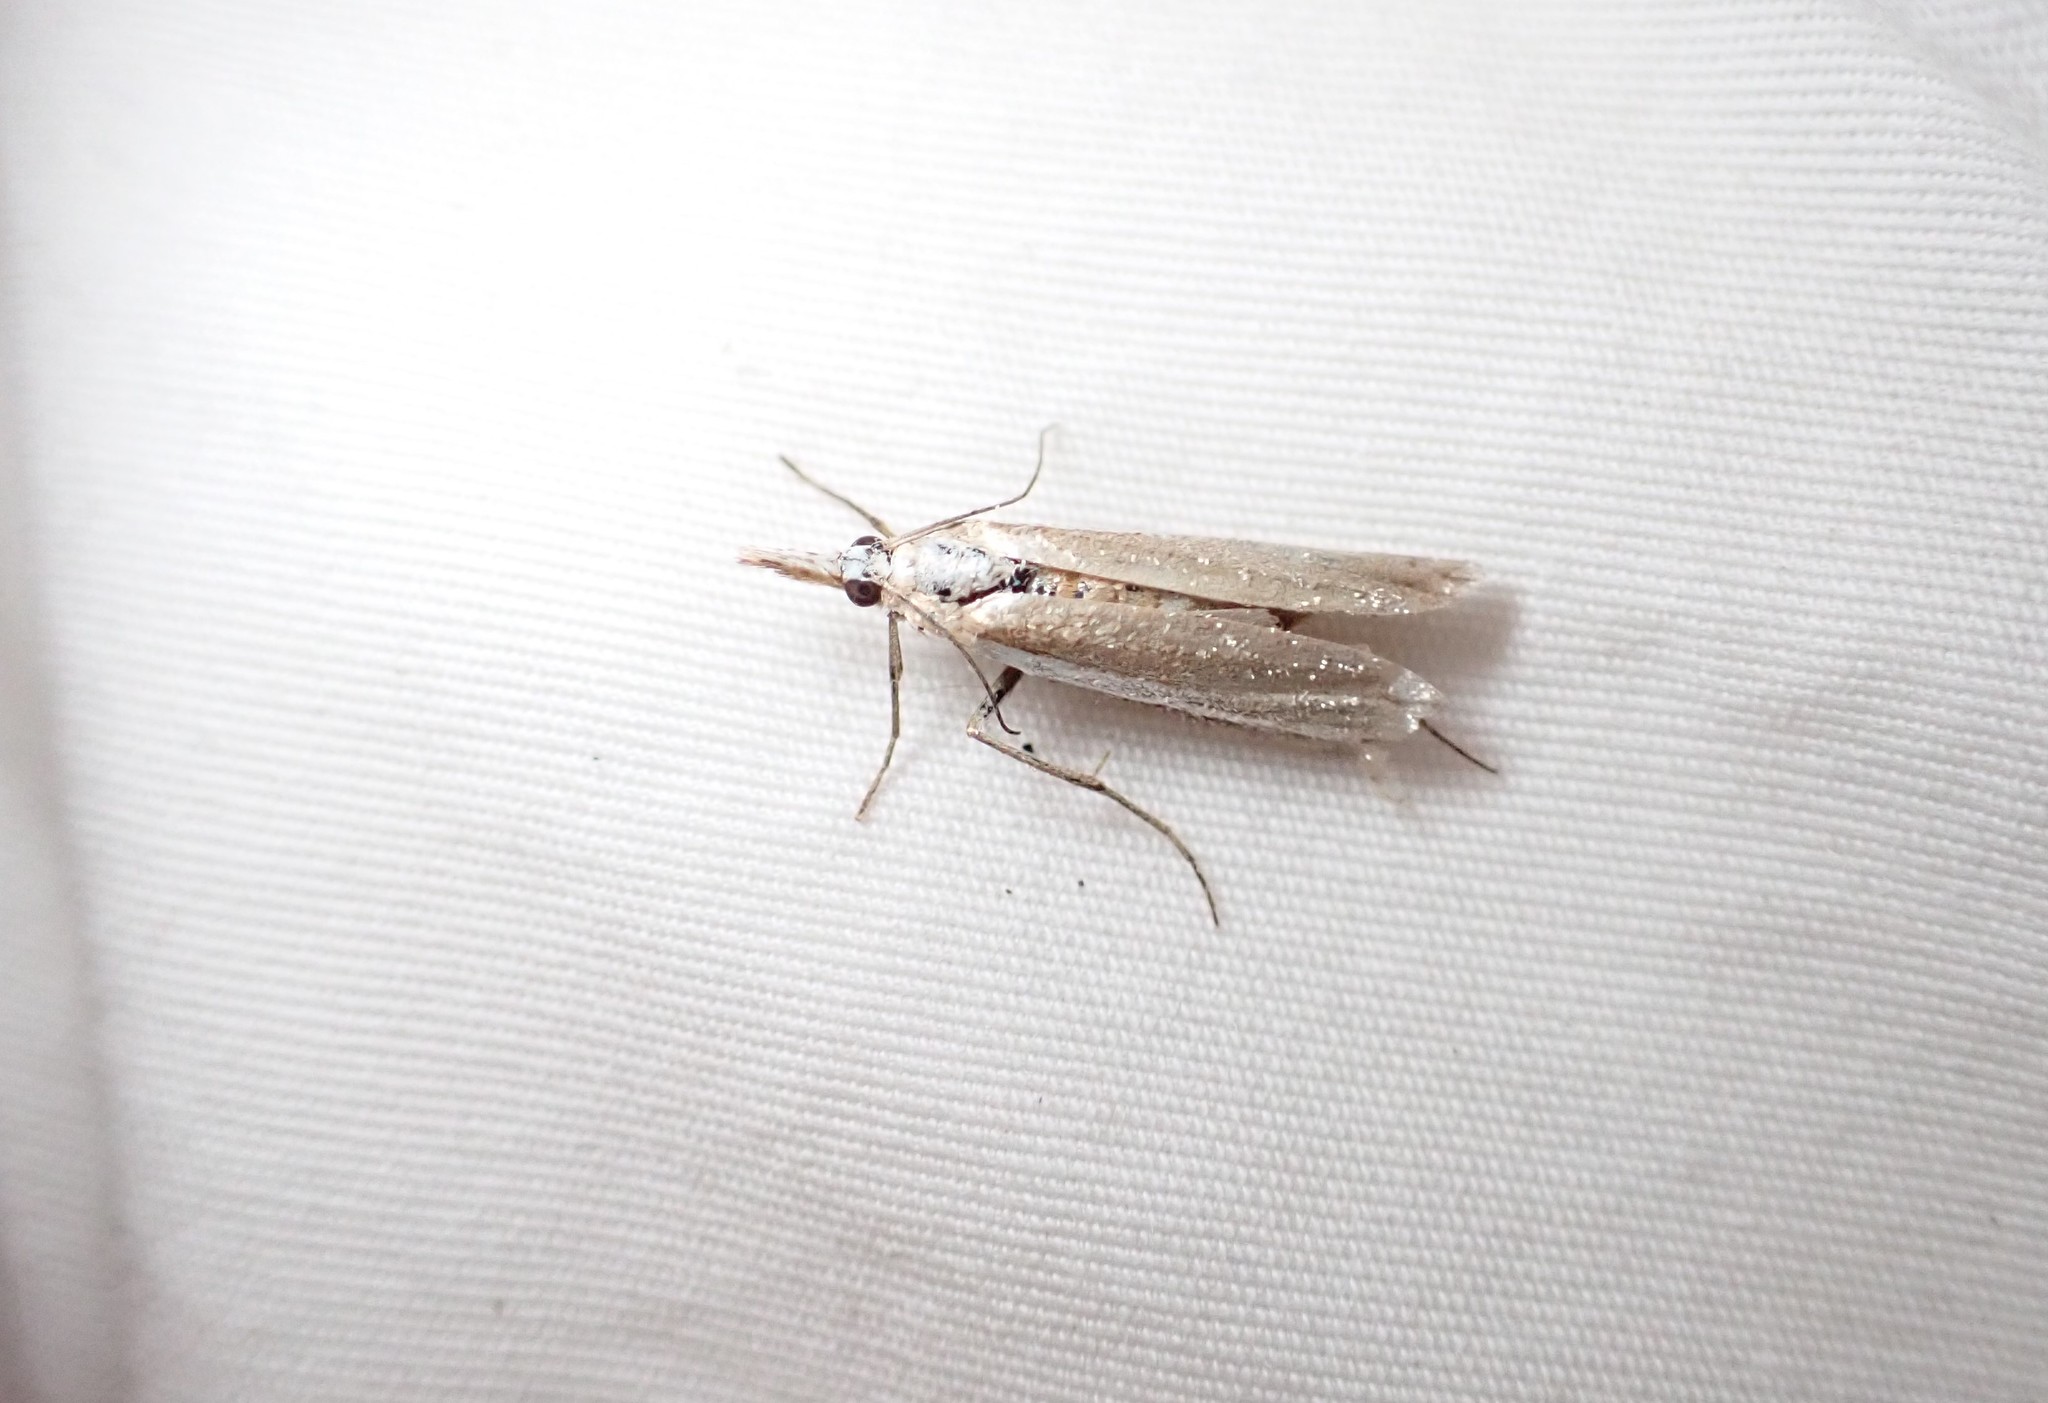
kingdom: Animalia
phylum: Arthropoda
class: Insecta
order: Lepidoptera
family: Crambidae
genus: Orocrambus
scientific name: Orocrambus
